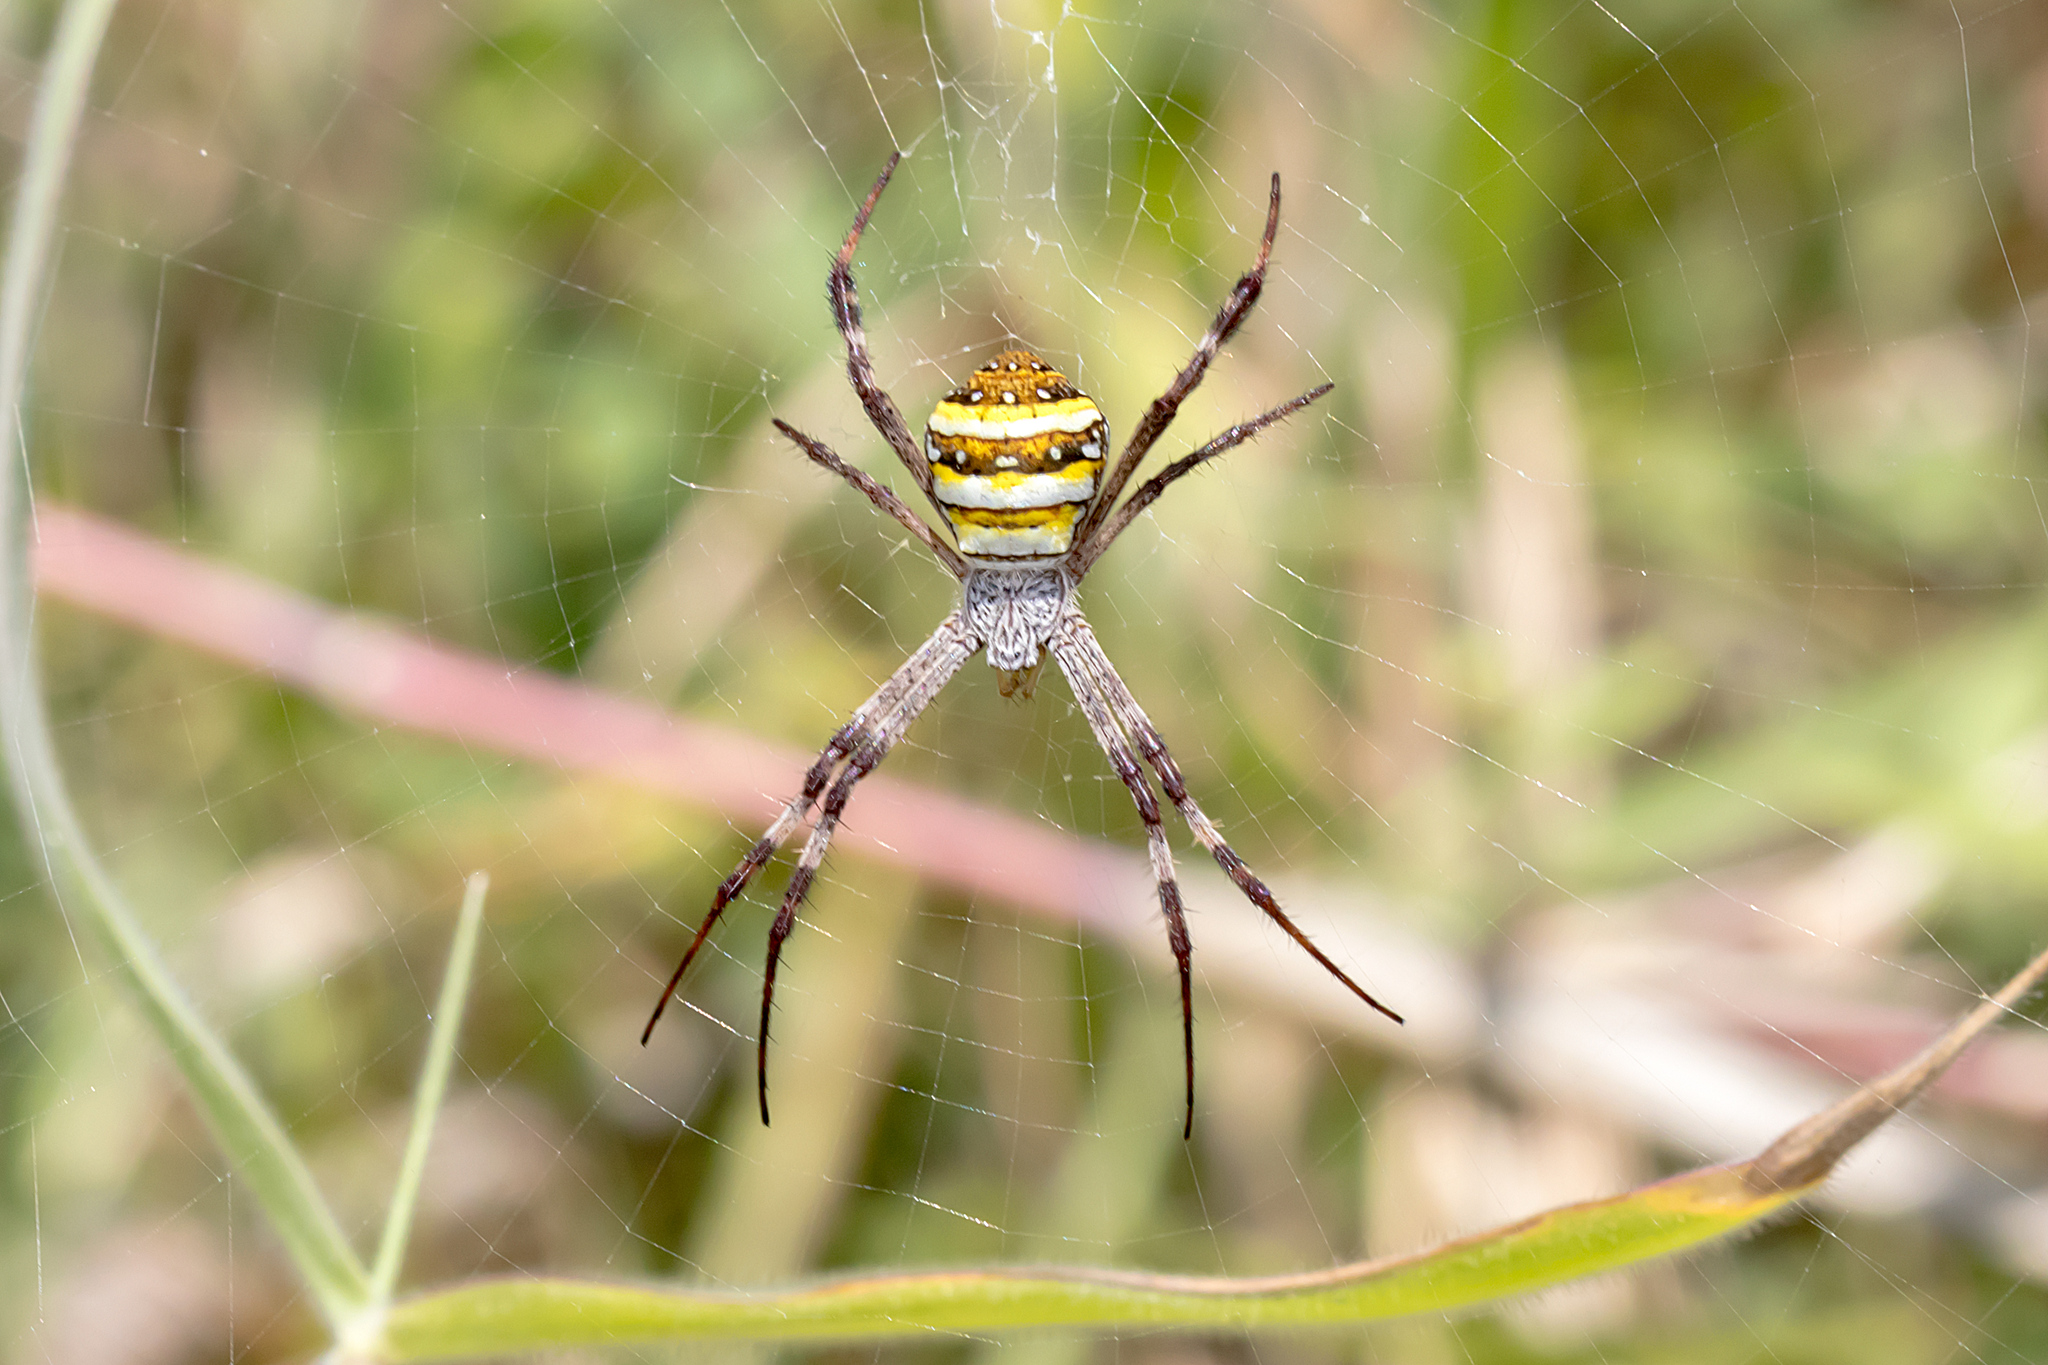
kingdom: Animalia
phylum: Arthropoda
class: Arachnida
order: Araneae
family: Araneidae
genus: Argiope
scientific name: Argiope aetherea
